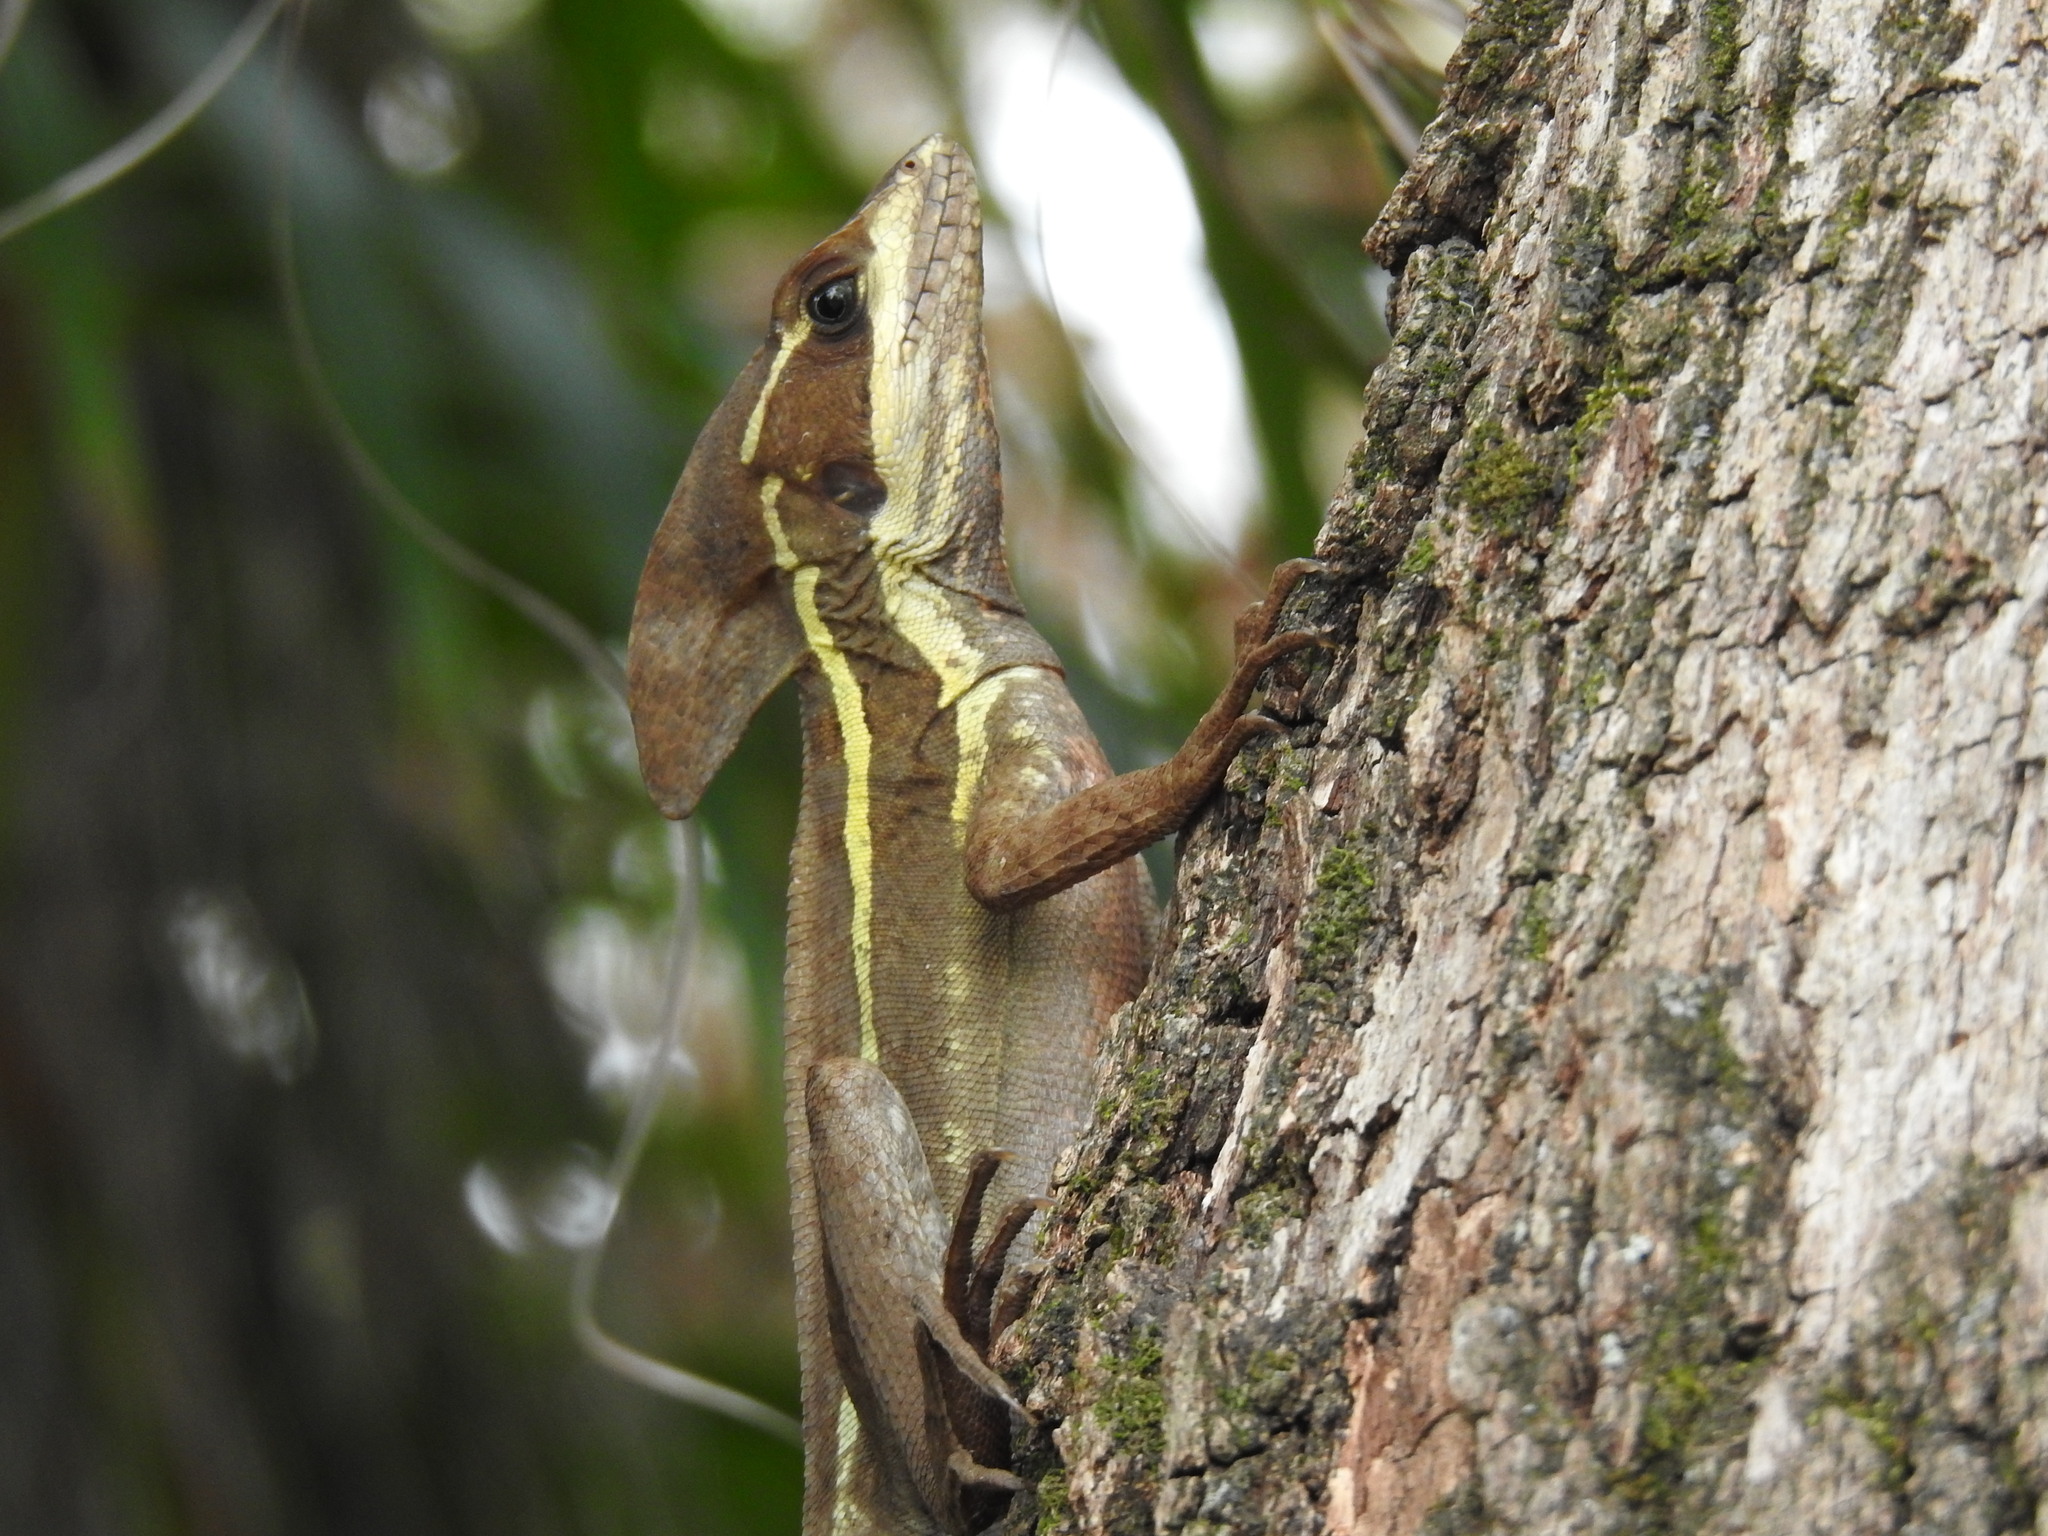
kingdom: Animalia
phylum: Chordata
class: Squamata
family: Corytophanidae
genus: Basiliscus
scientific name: Basiliscus vittatus
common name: Brown basilisk
